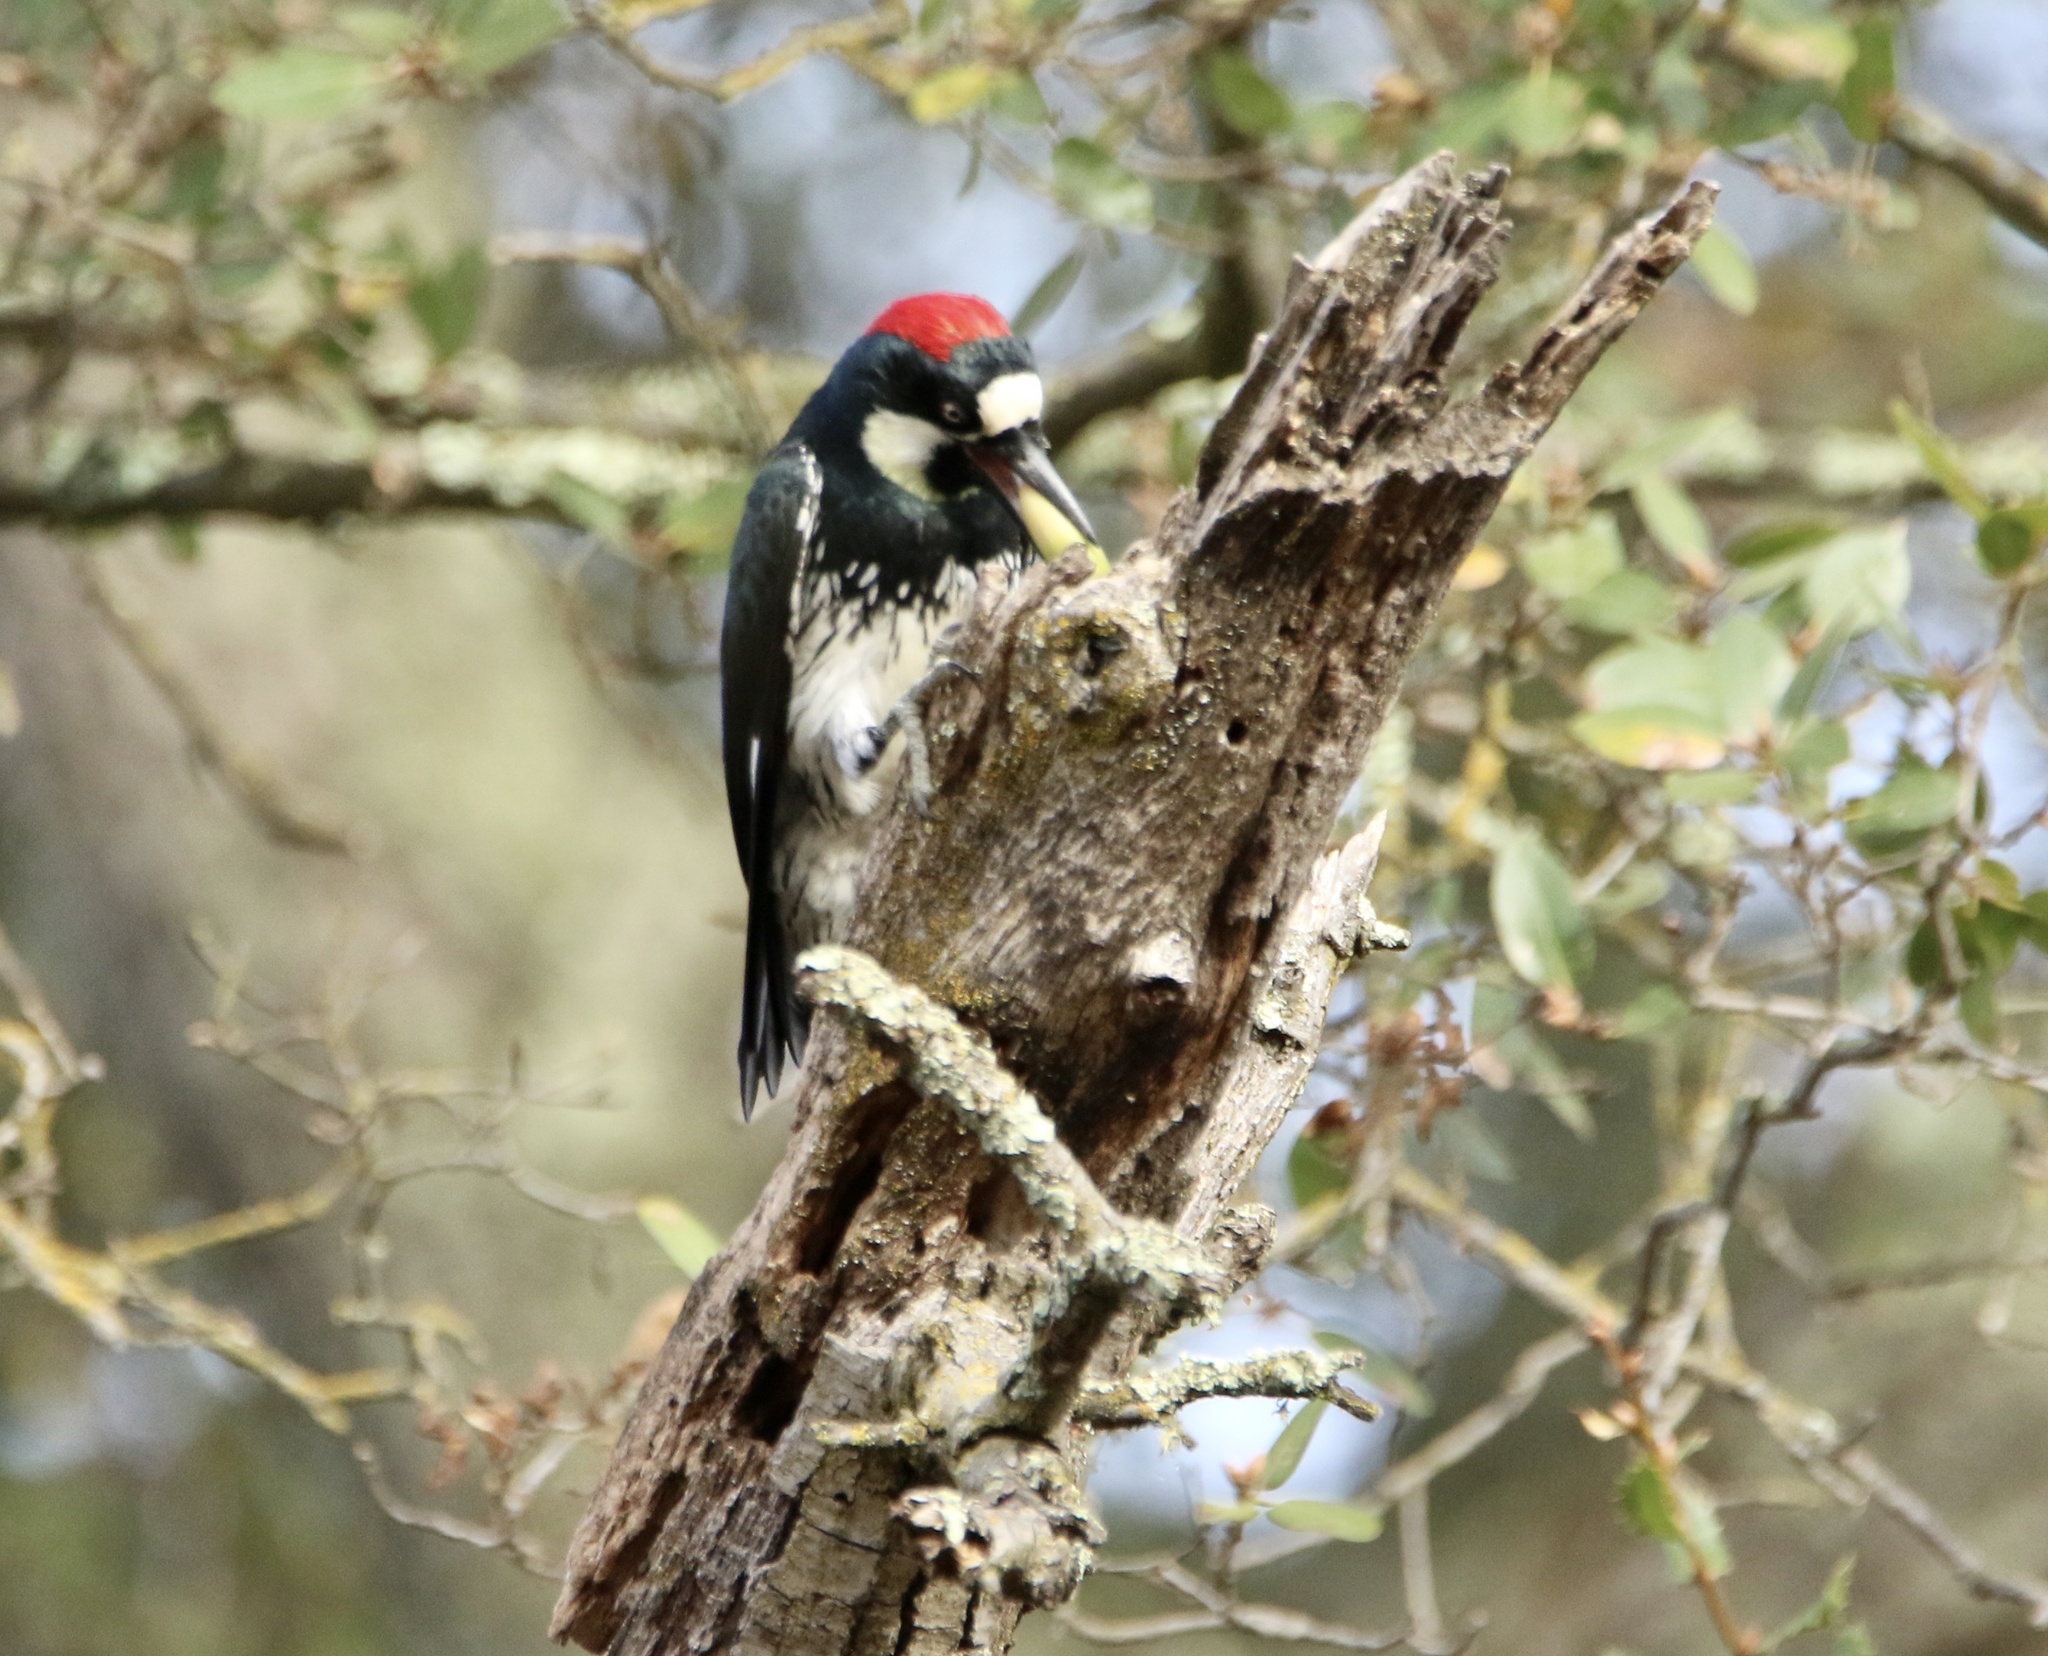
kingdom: Animalia
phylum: Chordata
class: Aves
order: Piciformes
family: Picidae
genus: Melanerpes
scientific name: Melanerpes formicivorus
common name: Acorn woodpecker
